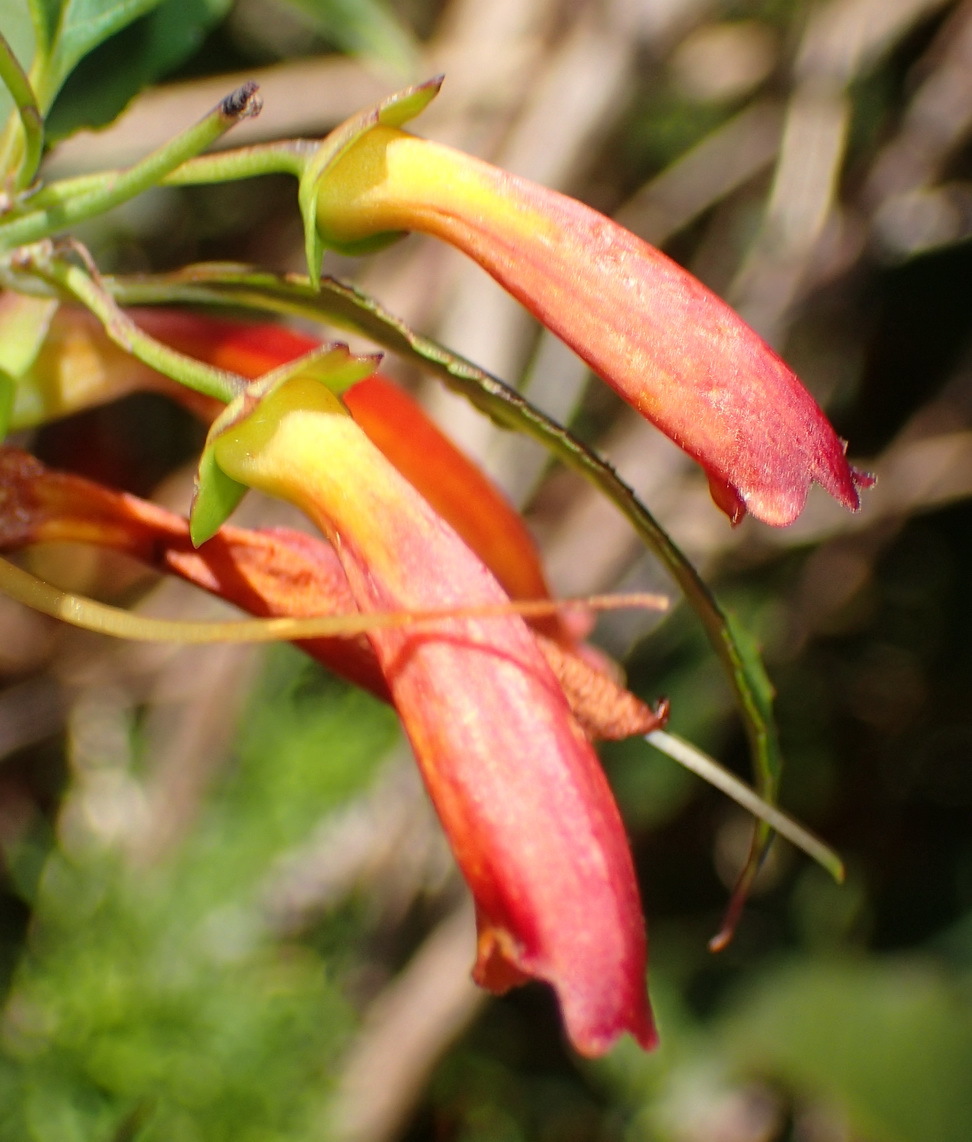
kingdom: Plantae
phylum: Tracheophyta
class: Magnoliopsida
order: Lamiales
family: Stilbaceae
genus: Halleria
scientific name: Halleria lucida
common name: Tree fuschia
